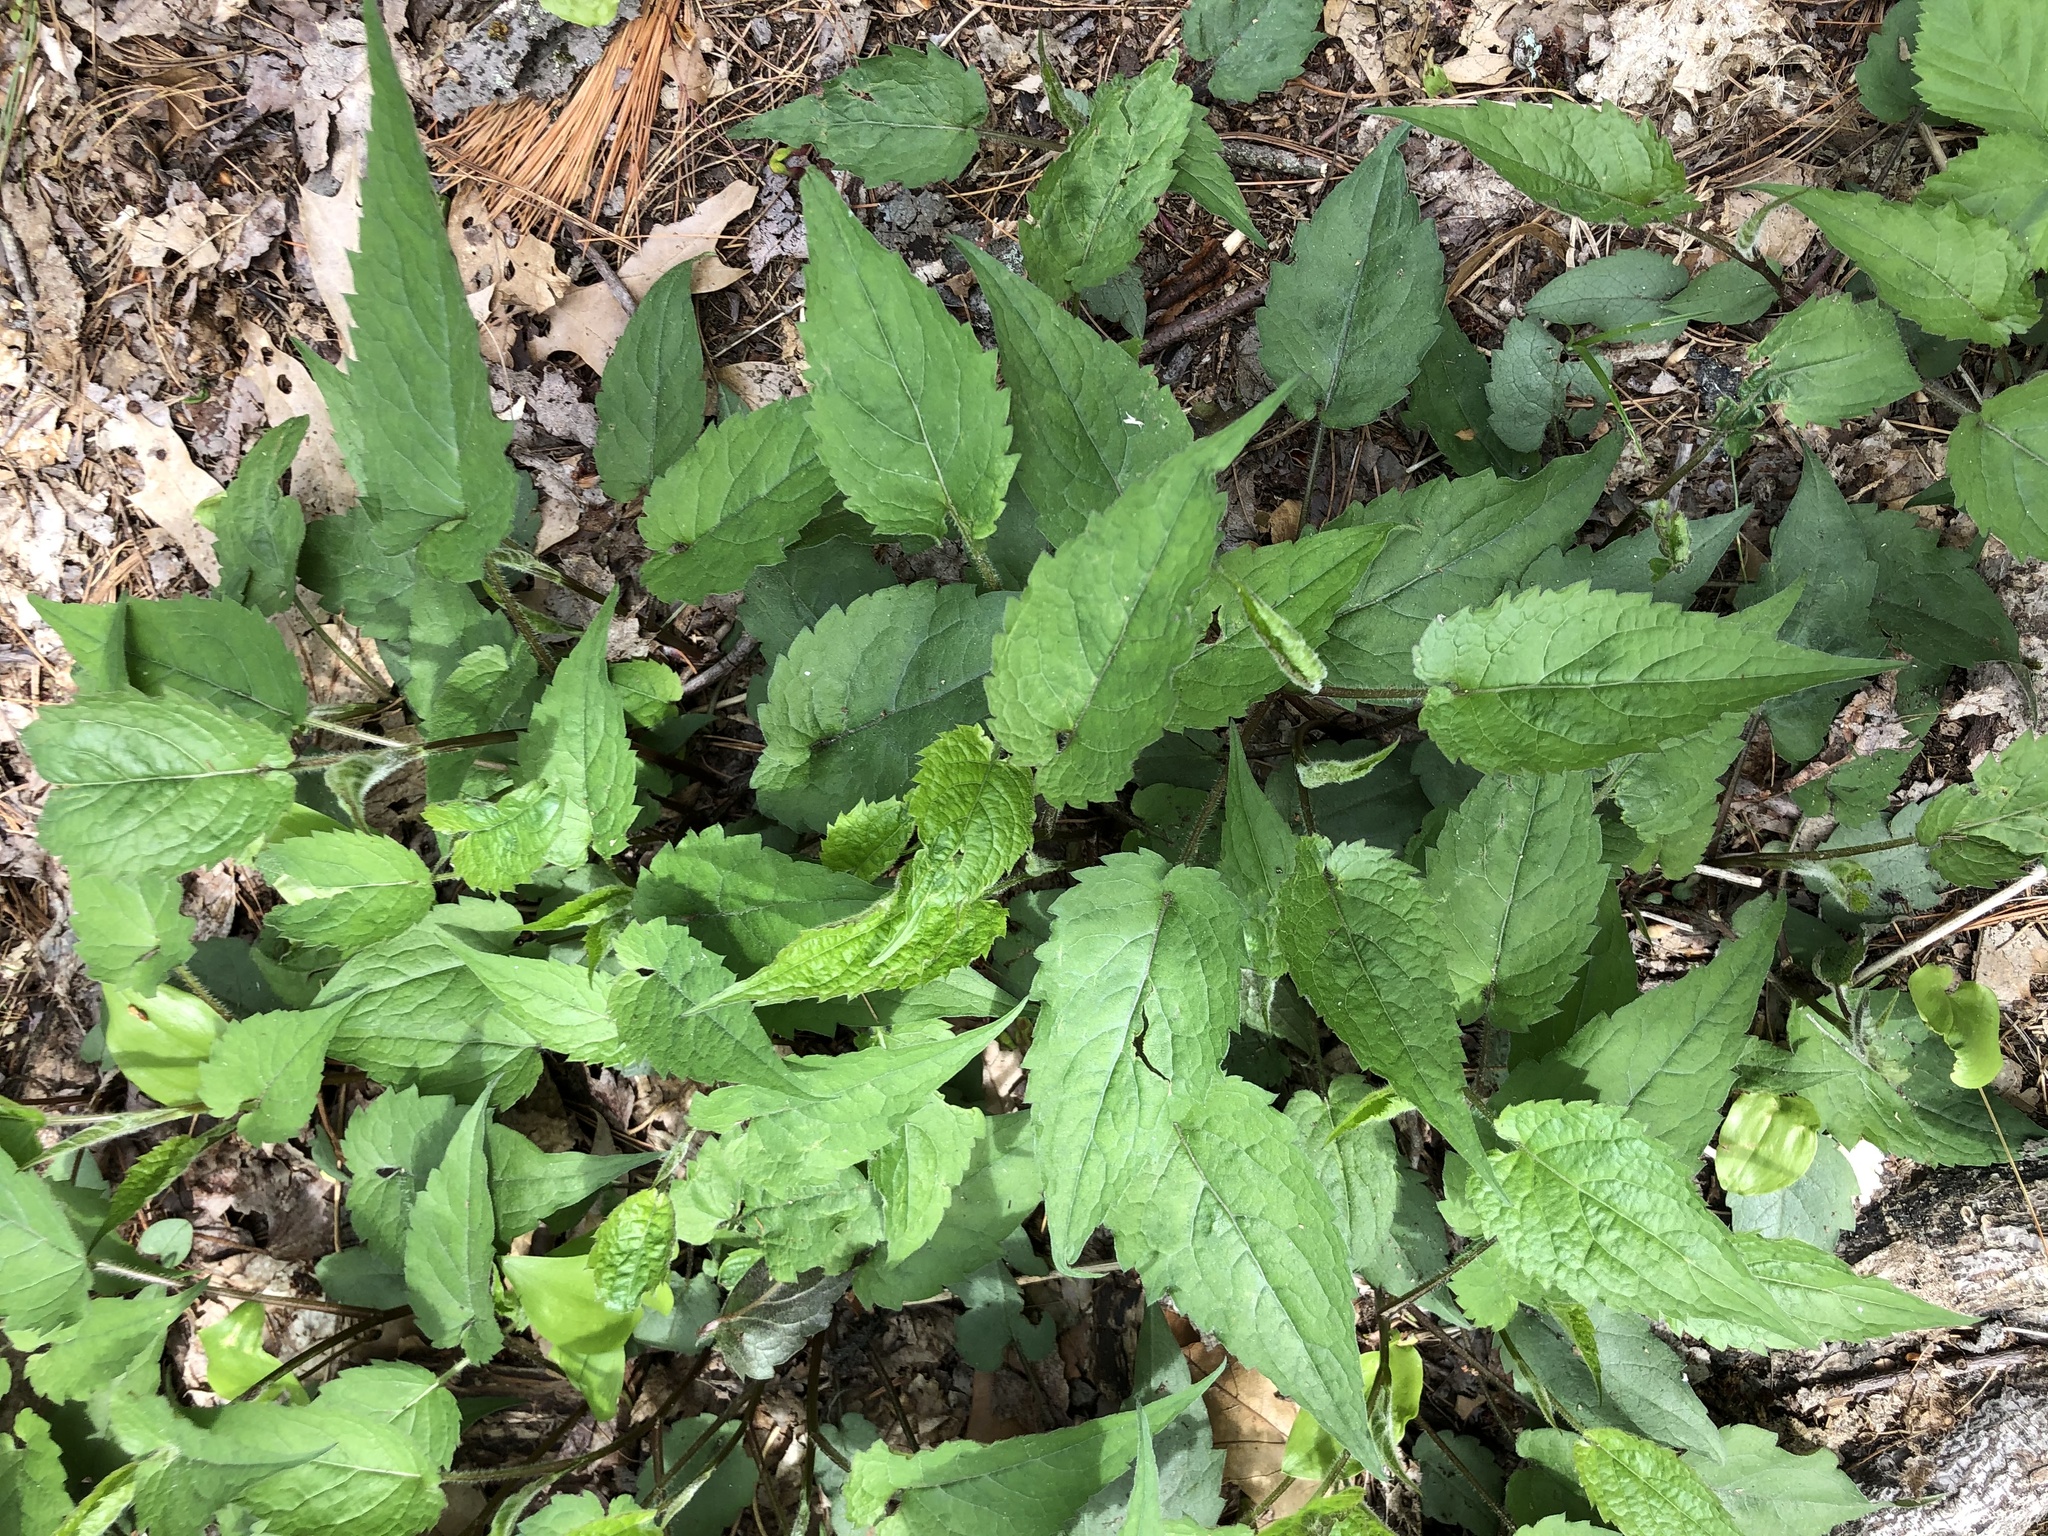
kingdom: Plantae
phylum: Tracheophyta
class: Magnoliopsida
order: Asterales
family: Asteraceae
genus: Eurybia
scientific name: Eurybia divaricata
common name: White wood aster
